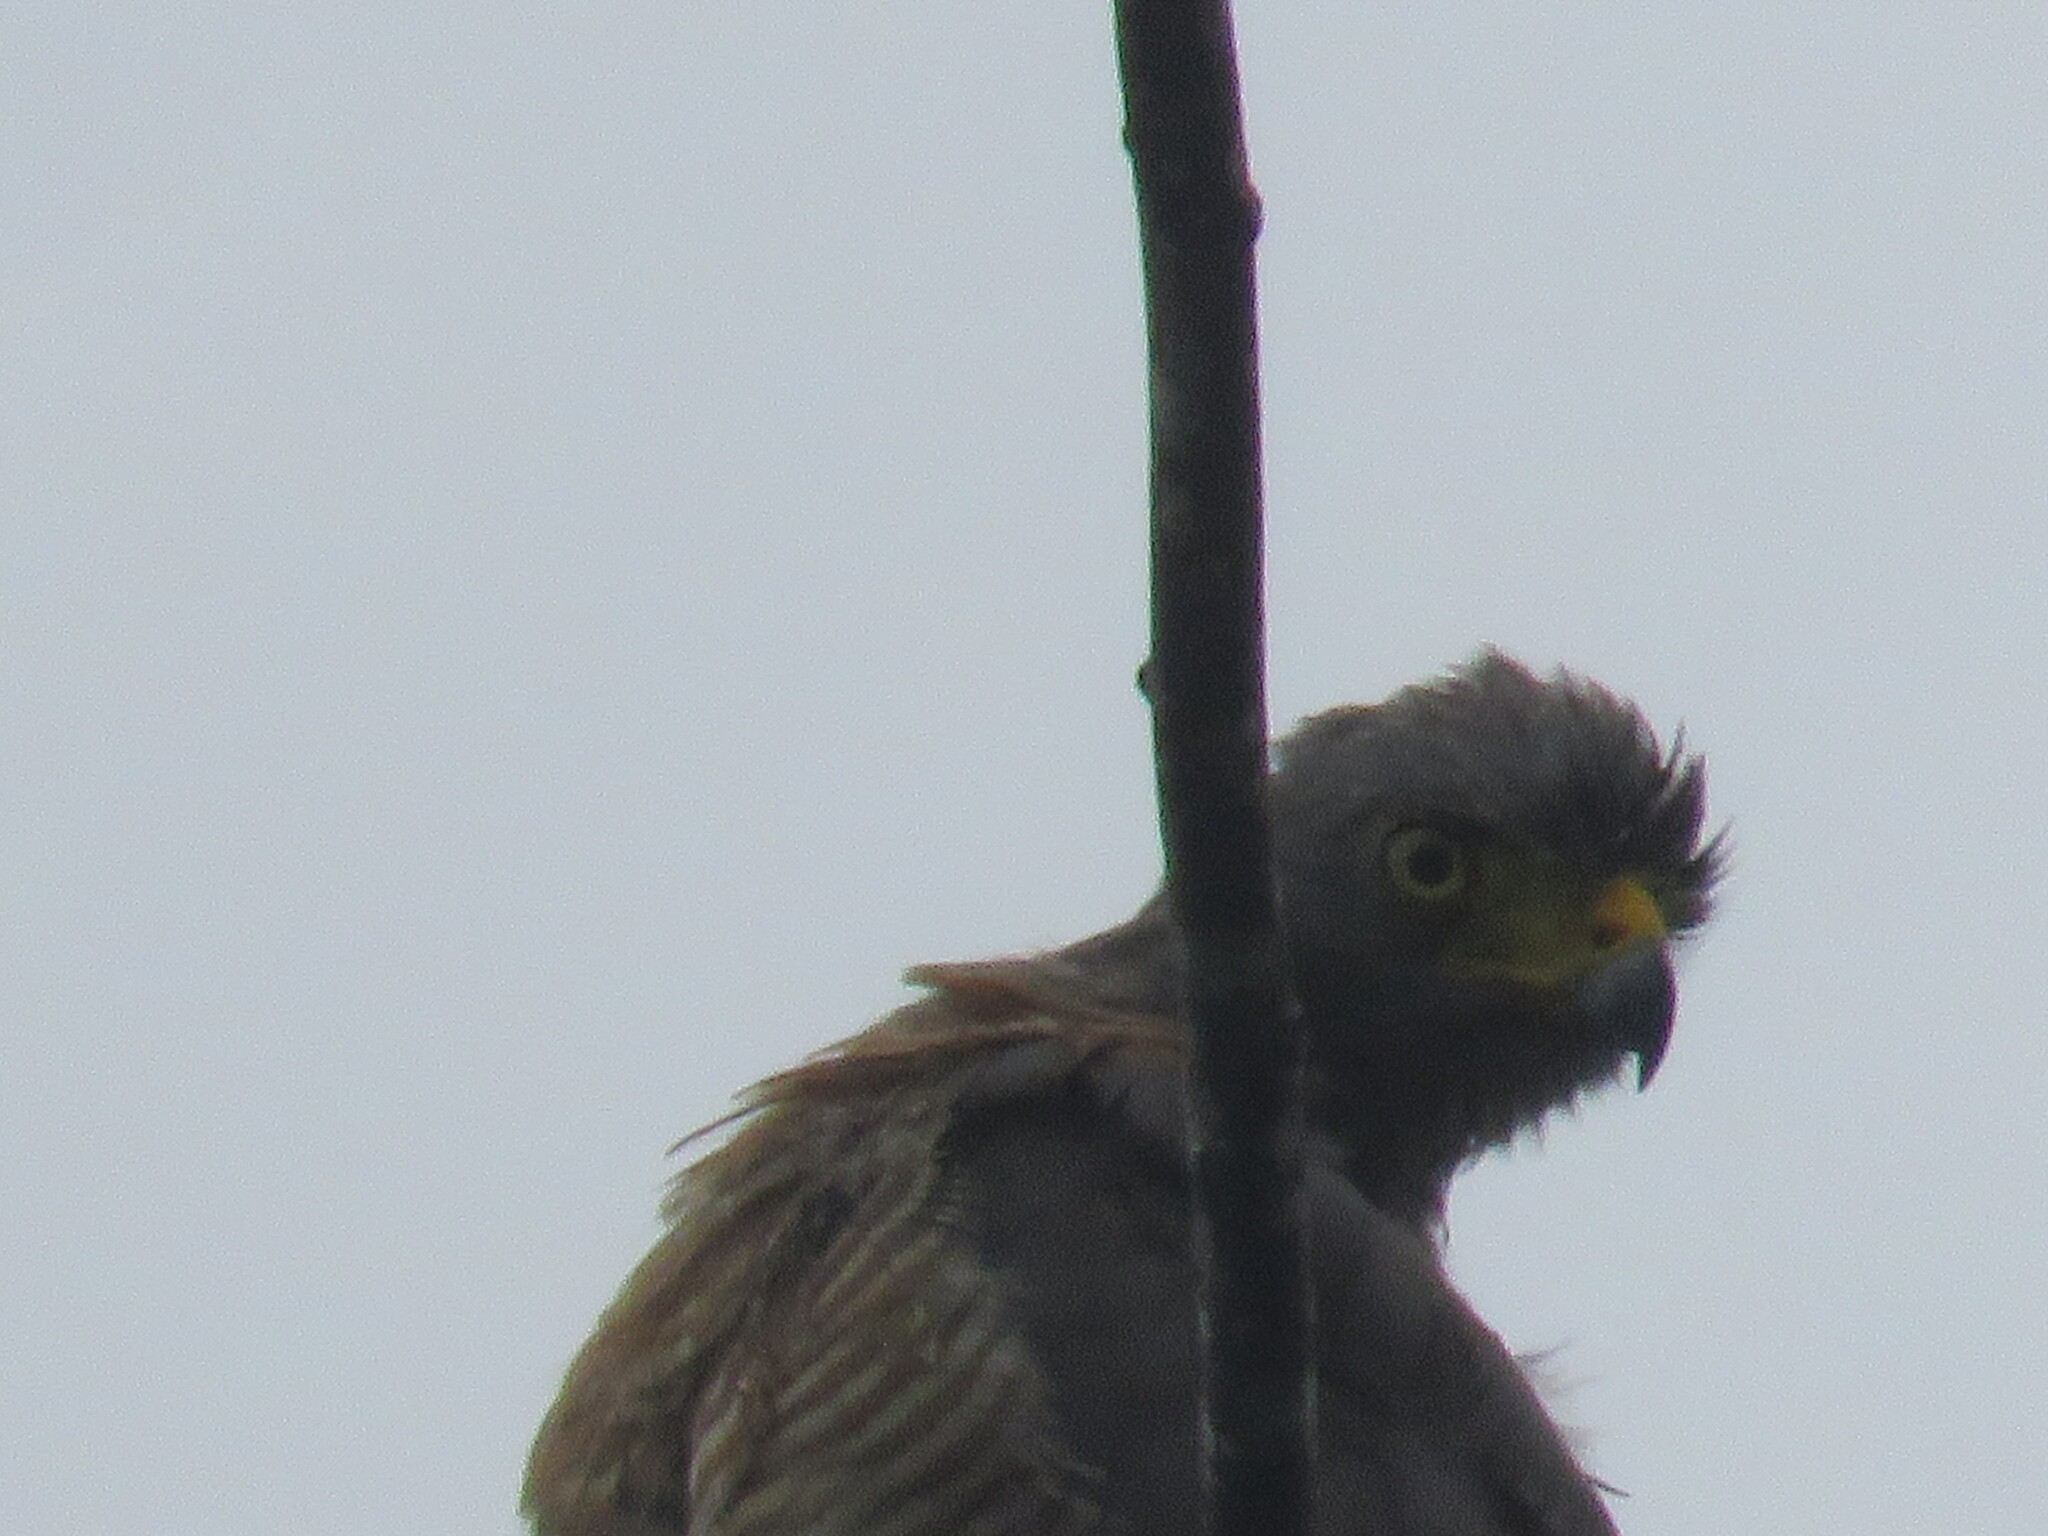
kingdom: Animalia
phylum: Chordata
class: Aves
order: Accipitriformes
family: Accipitridae
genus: Rupornis
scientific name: Rupornis magnirostris
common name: Roadside hawk
